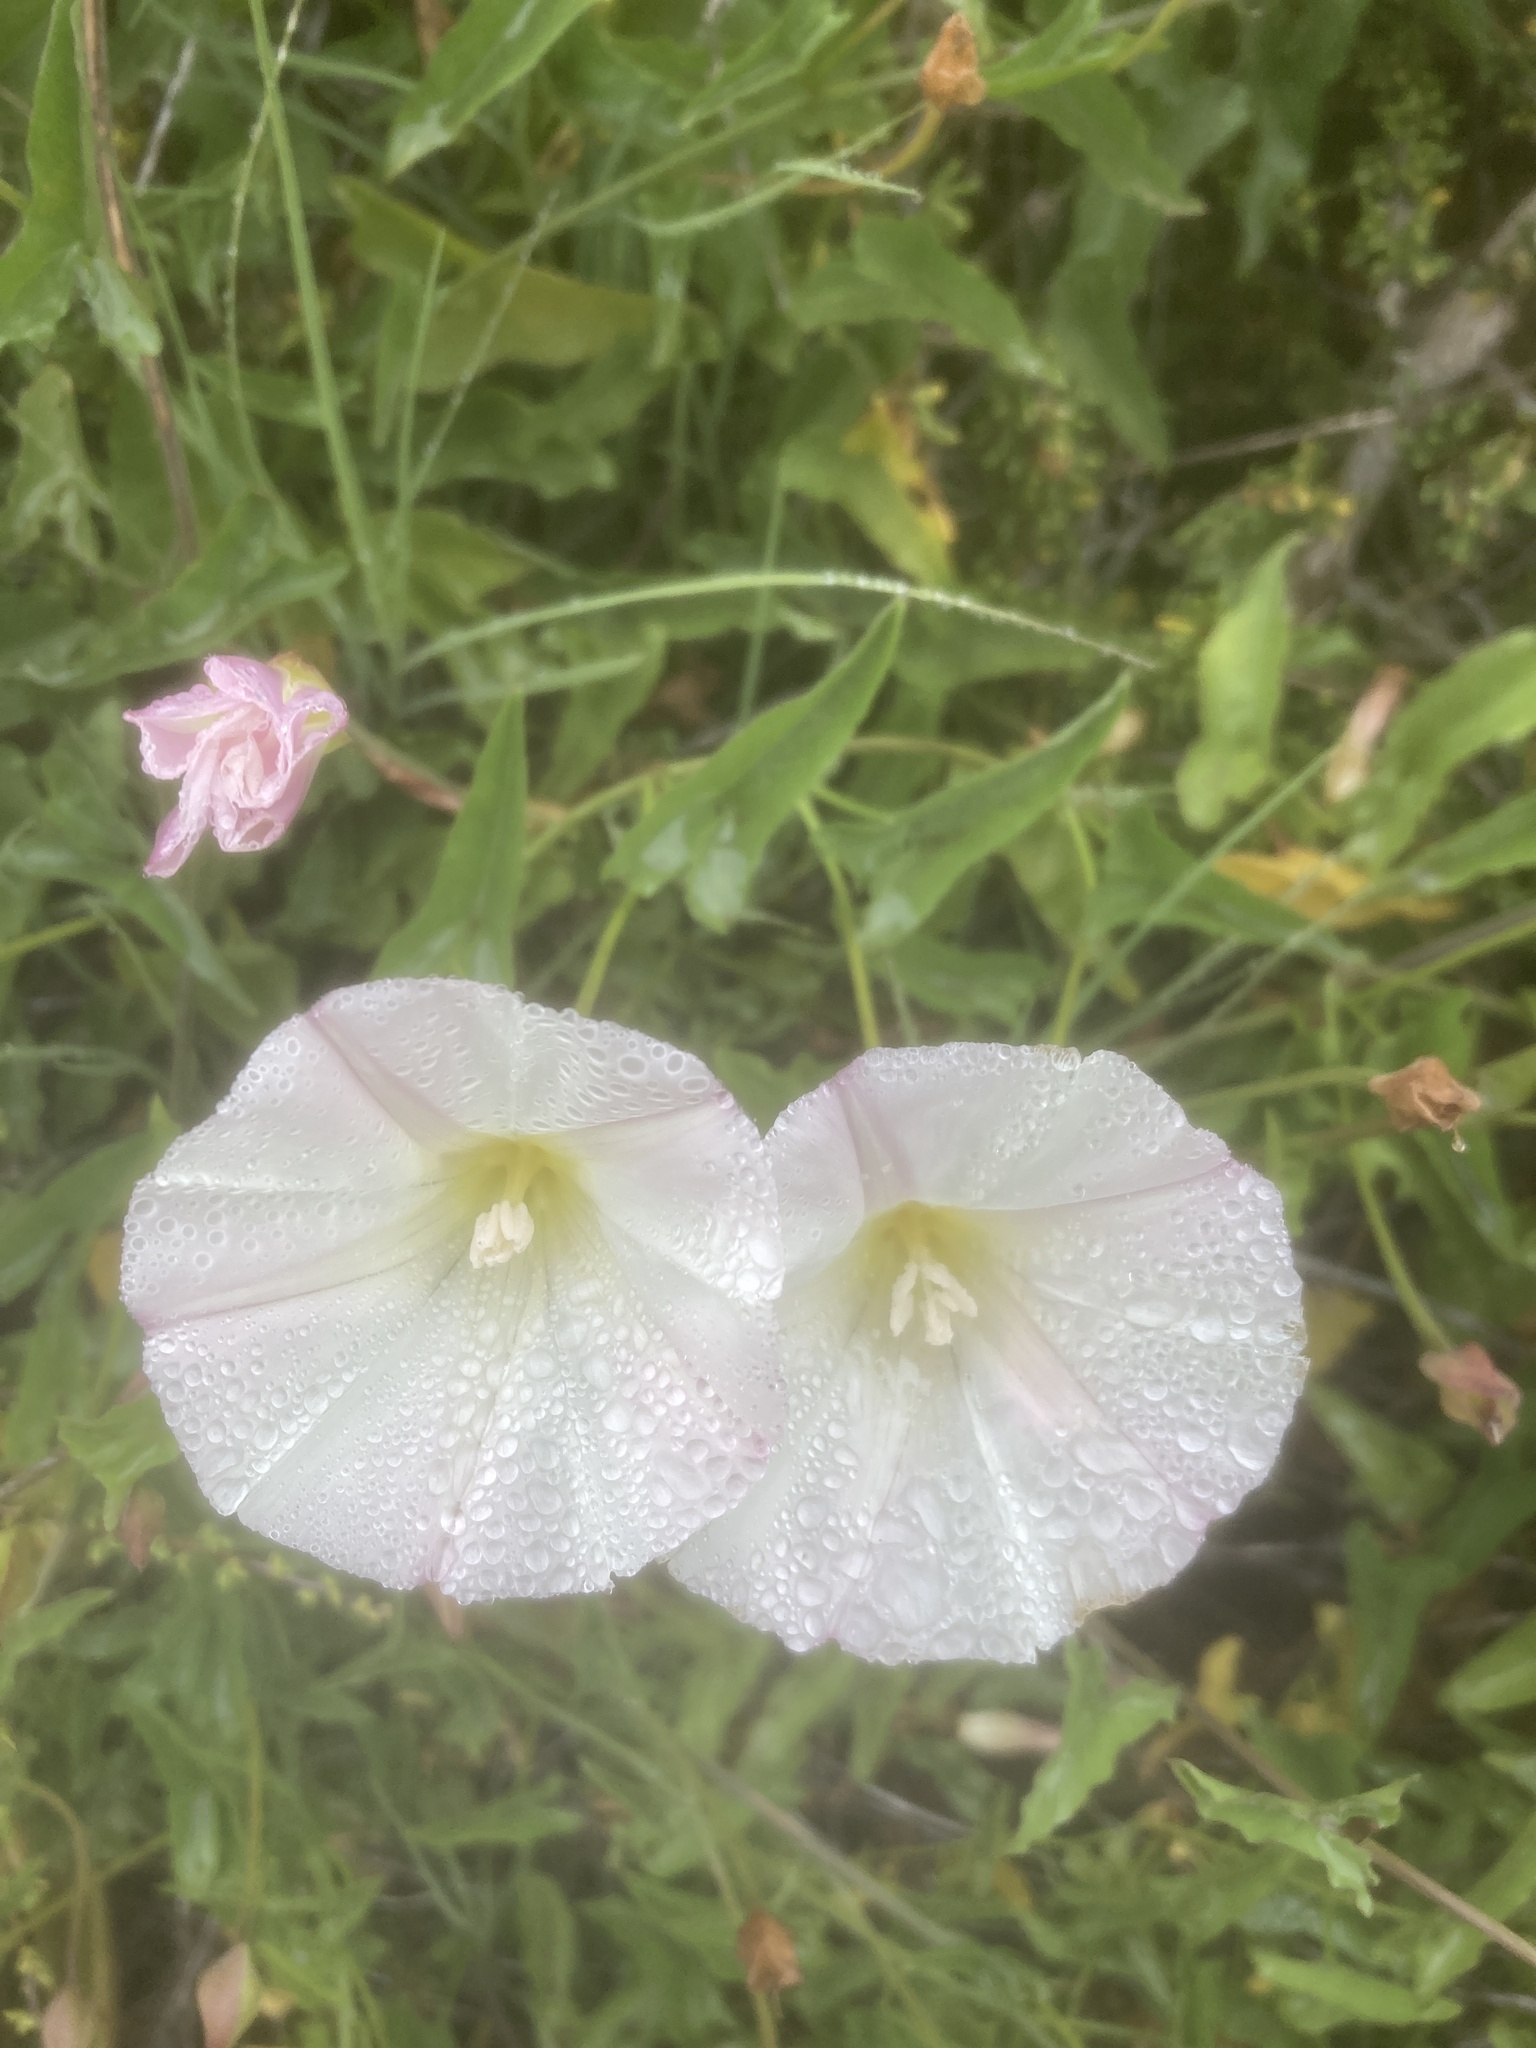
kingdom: Plantae
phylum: Tracheophyta
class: Magnoliopsida
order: Solanales
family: Convolvulaceae
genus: Calystegia
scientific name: Calystegia macrostegia
